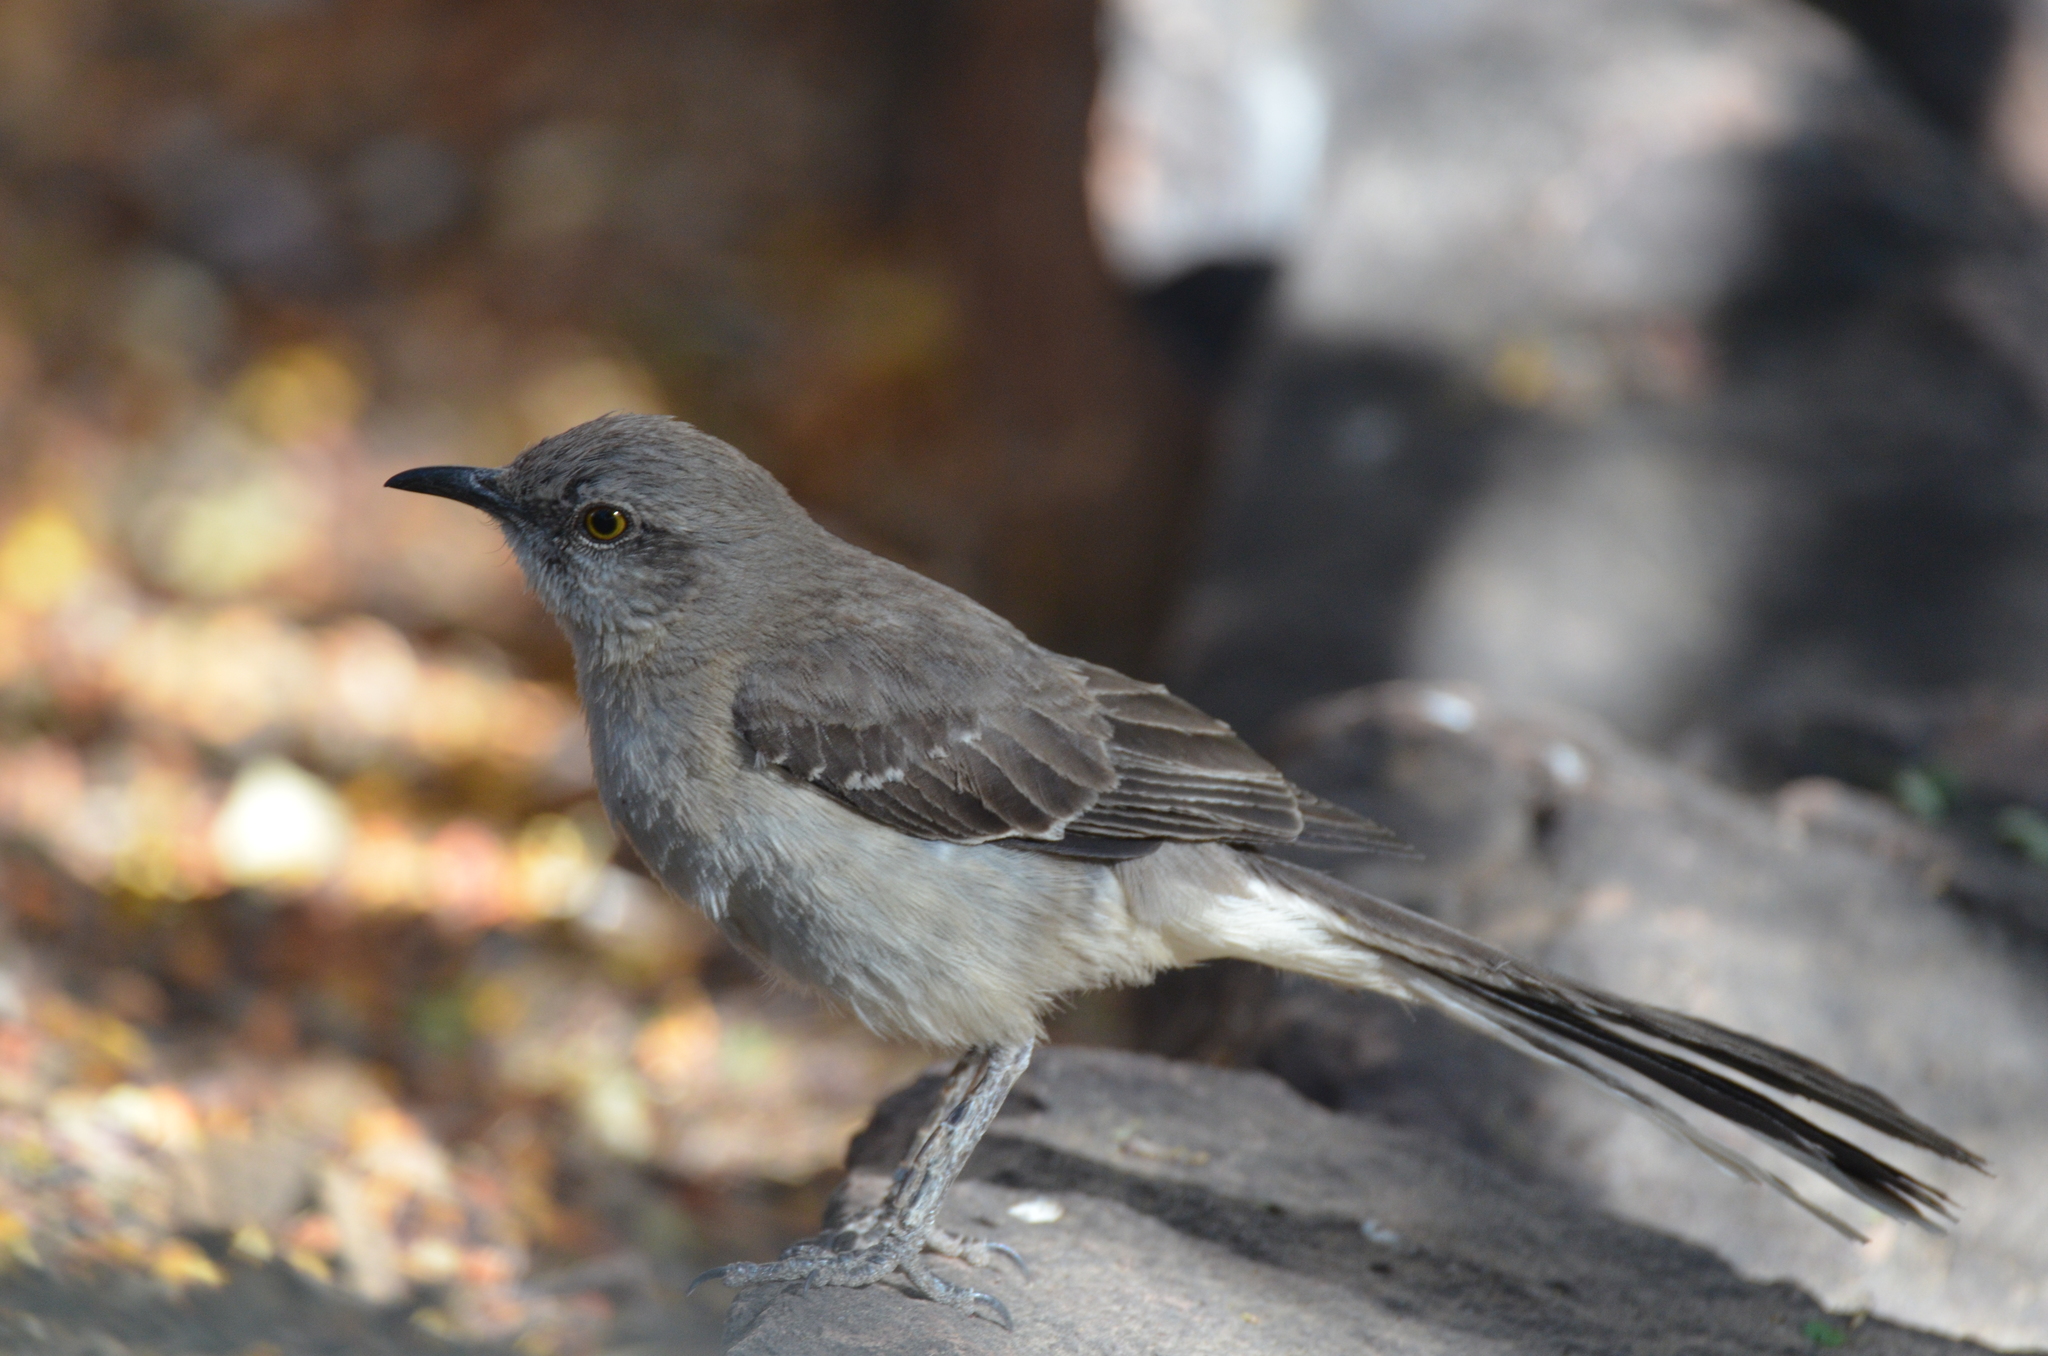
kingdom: Animalia
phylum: Chordata
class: Aves
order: Passeriformes
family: Mimidae
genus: Mimus
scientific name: Mimus polyglottos
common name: Northern mockingbird
